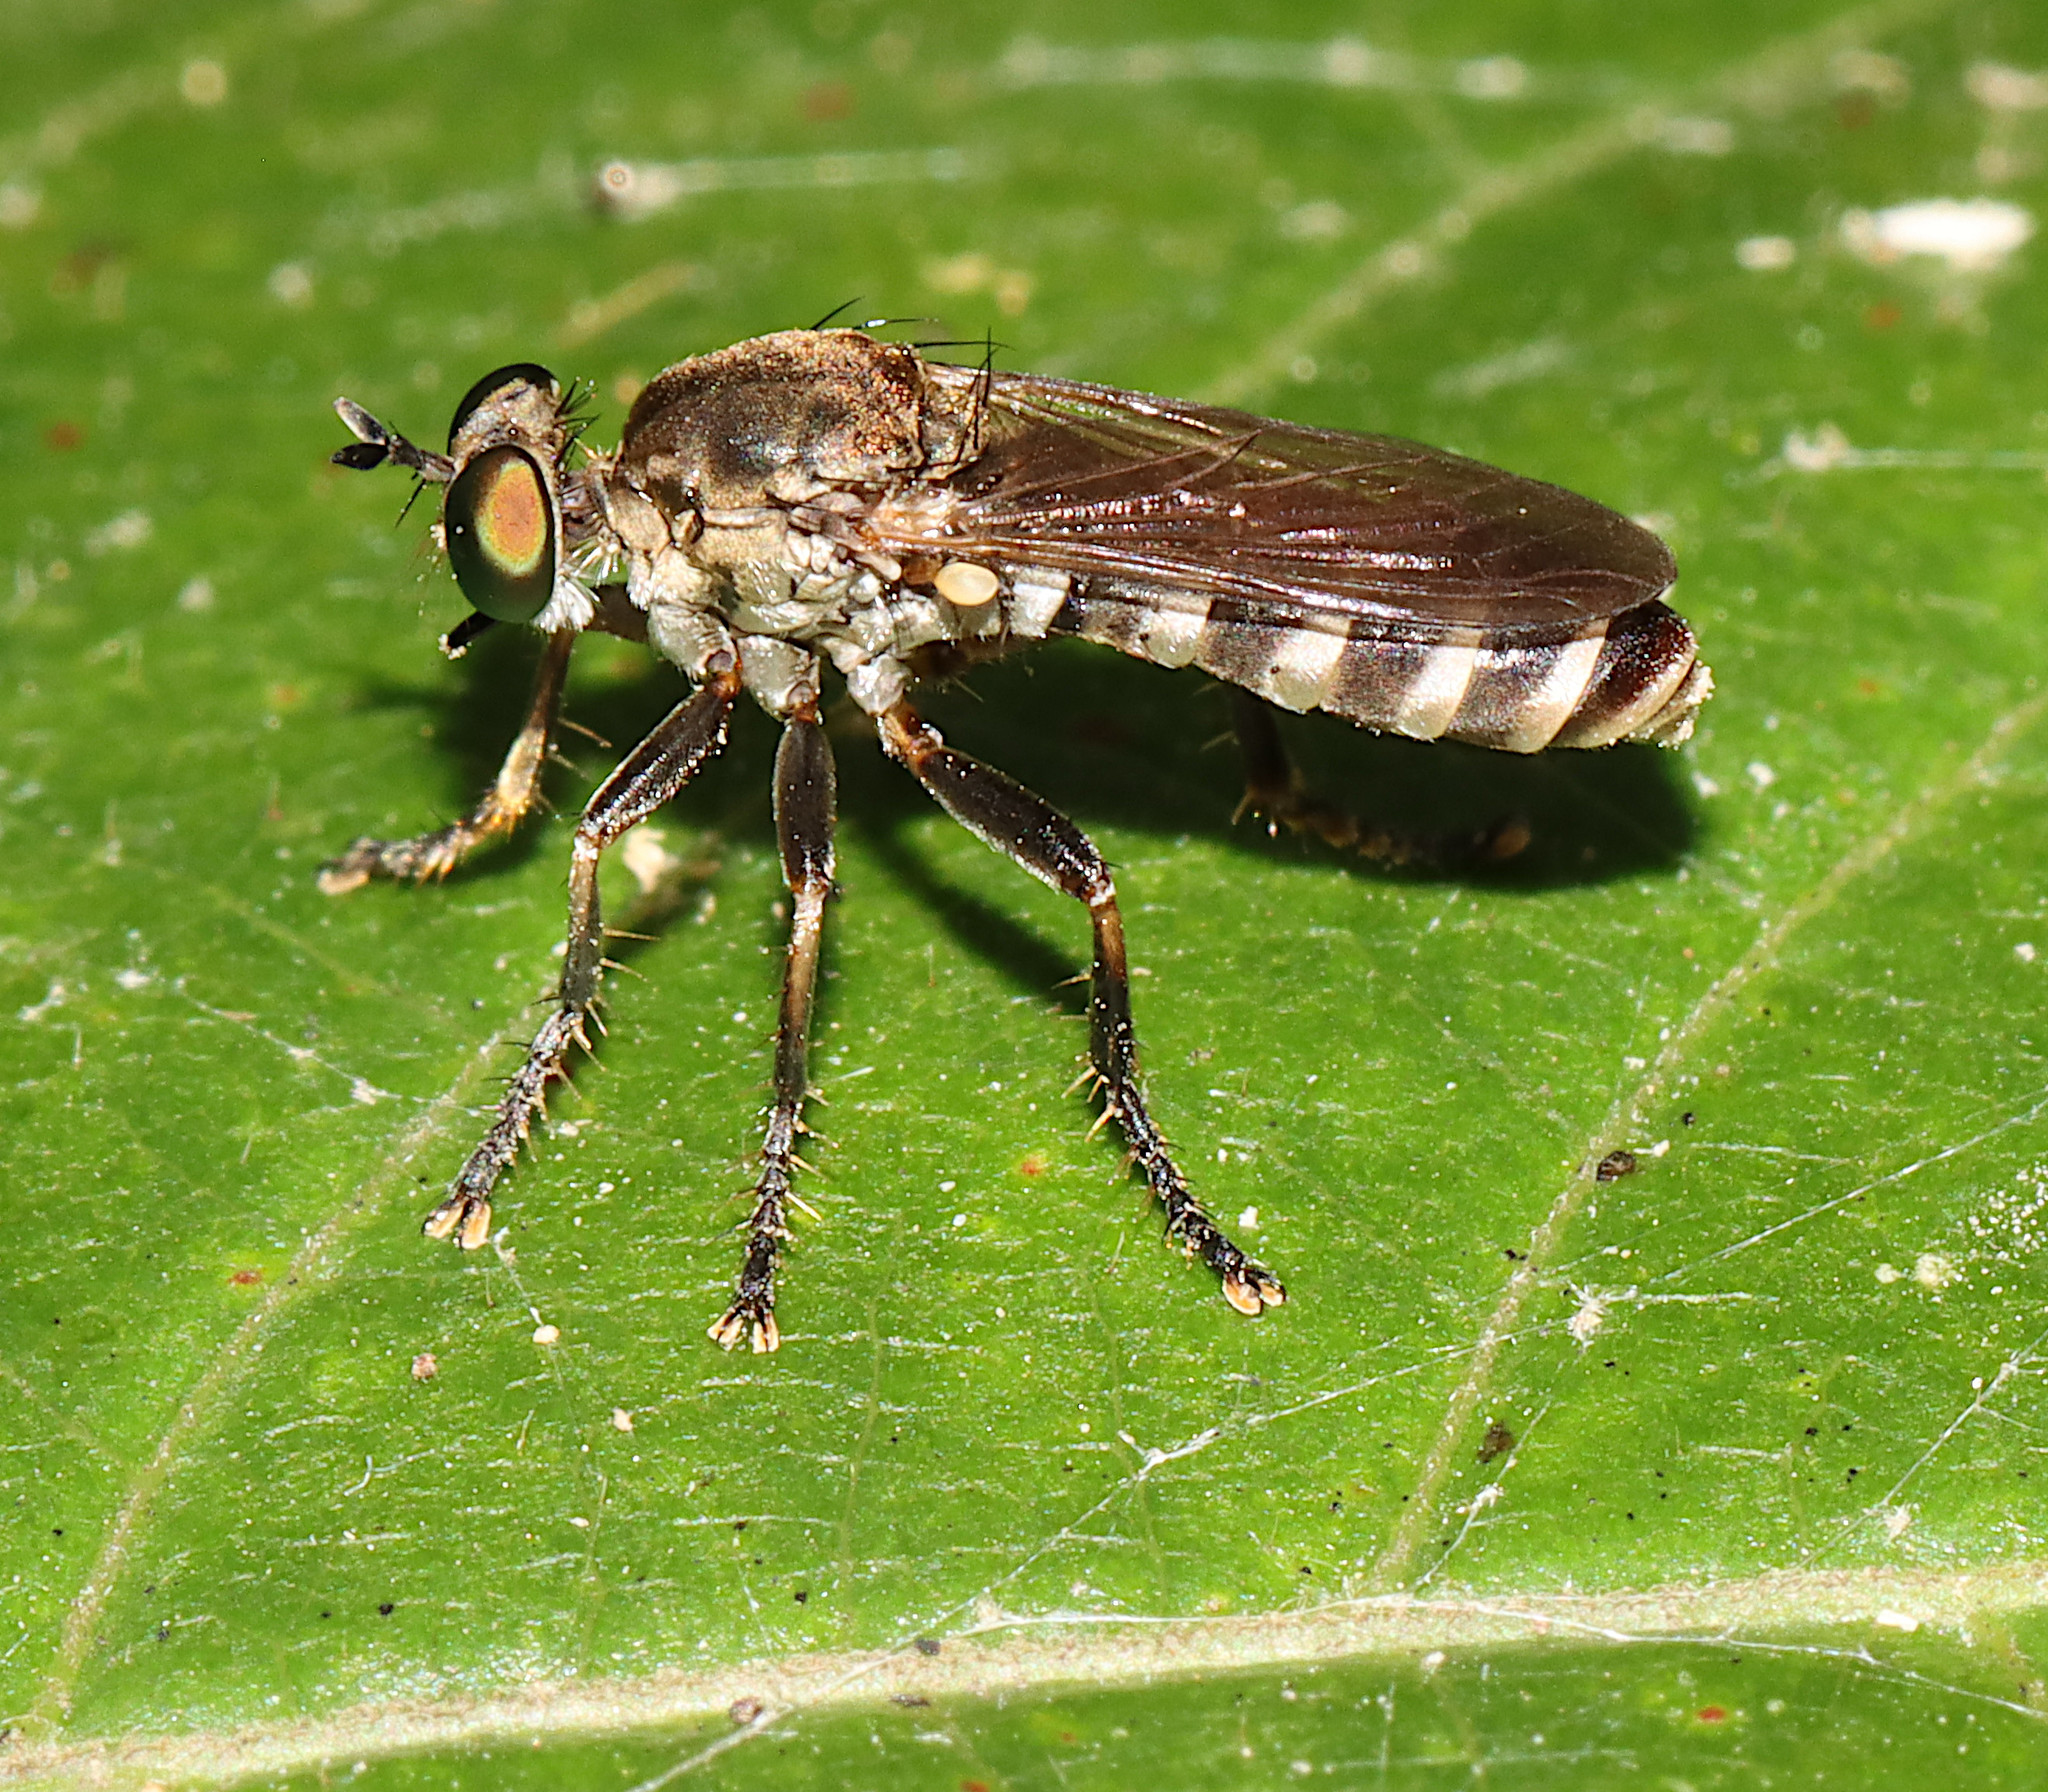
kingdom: Animalia
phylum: Arthropoda
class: Insecta
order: Diptera
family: Asilidae
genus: Psilocurus
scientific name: Psilocurus birdi
